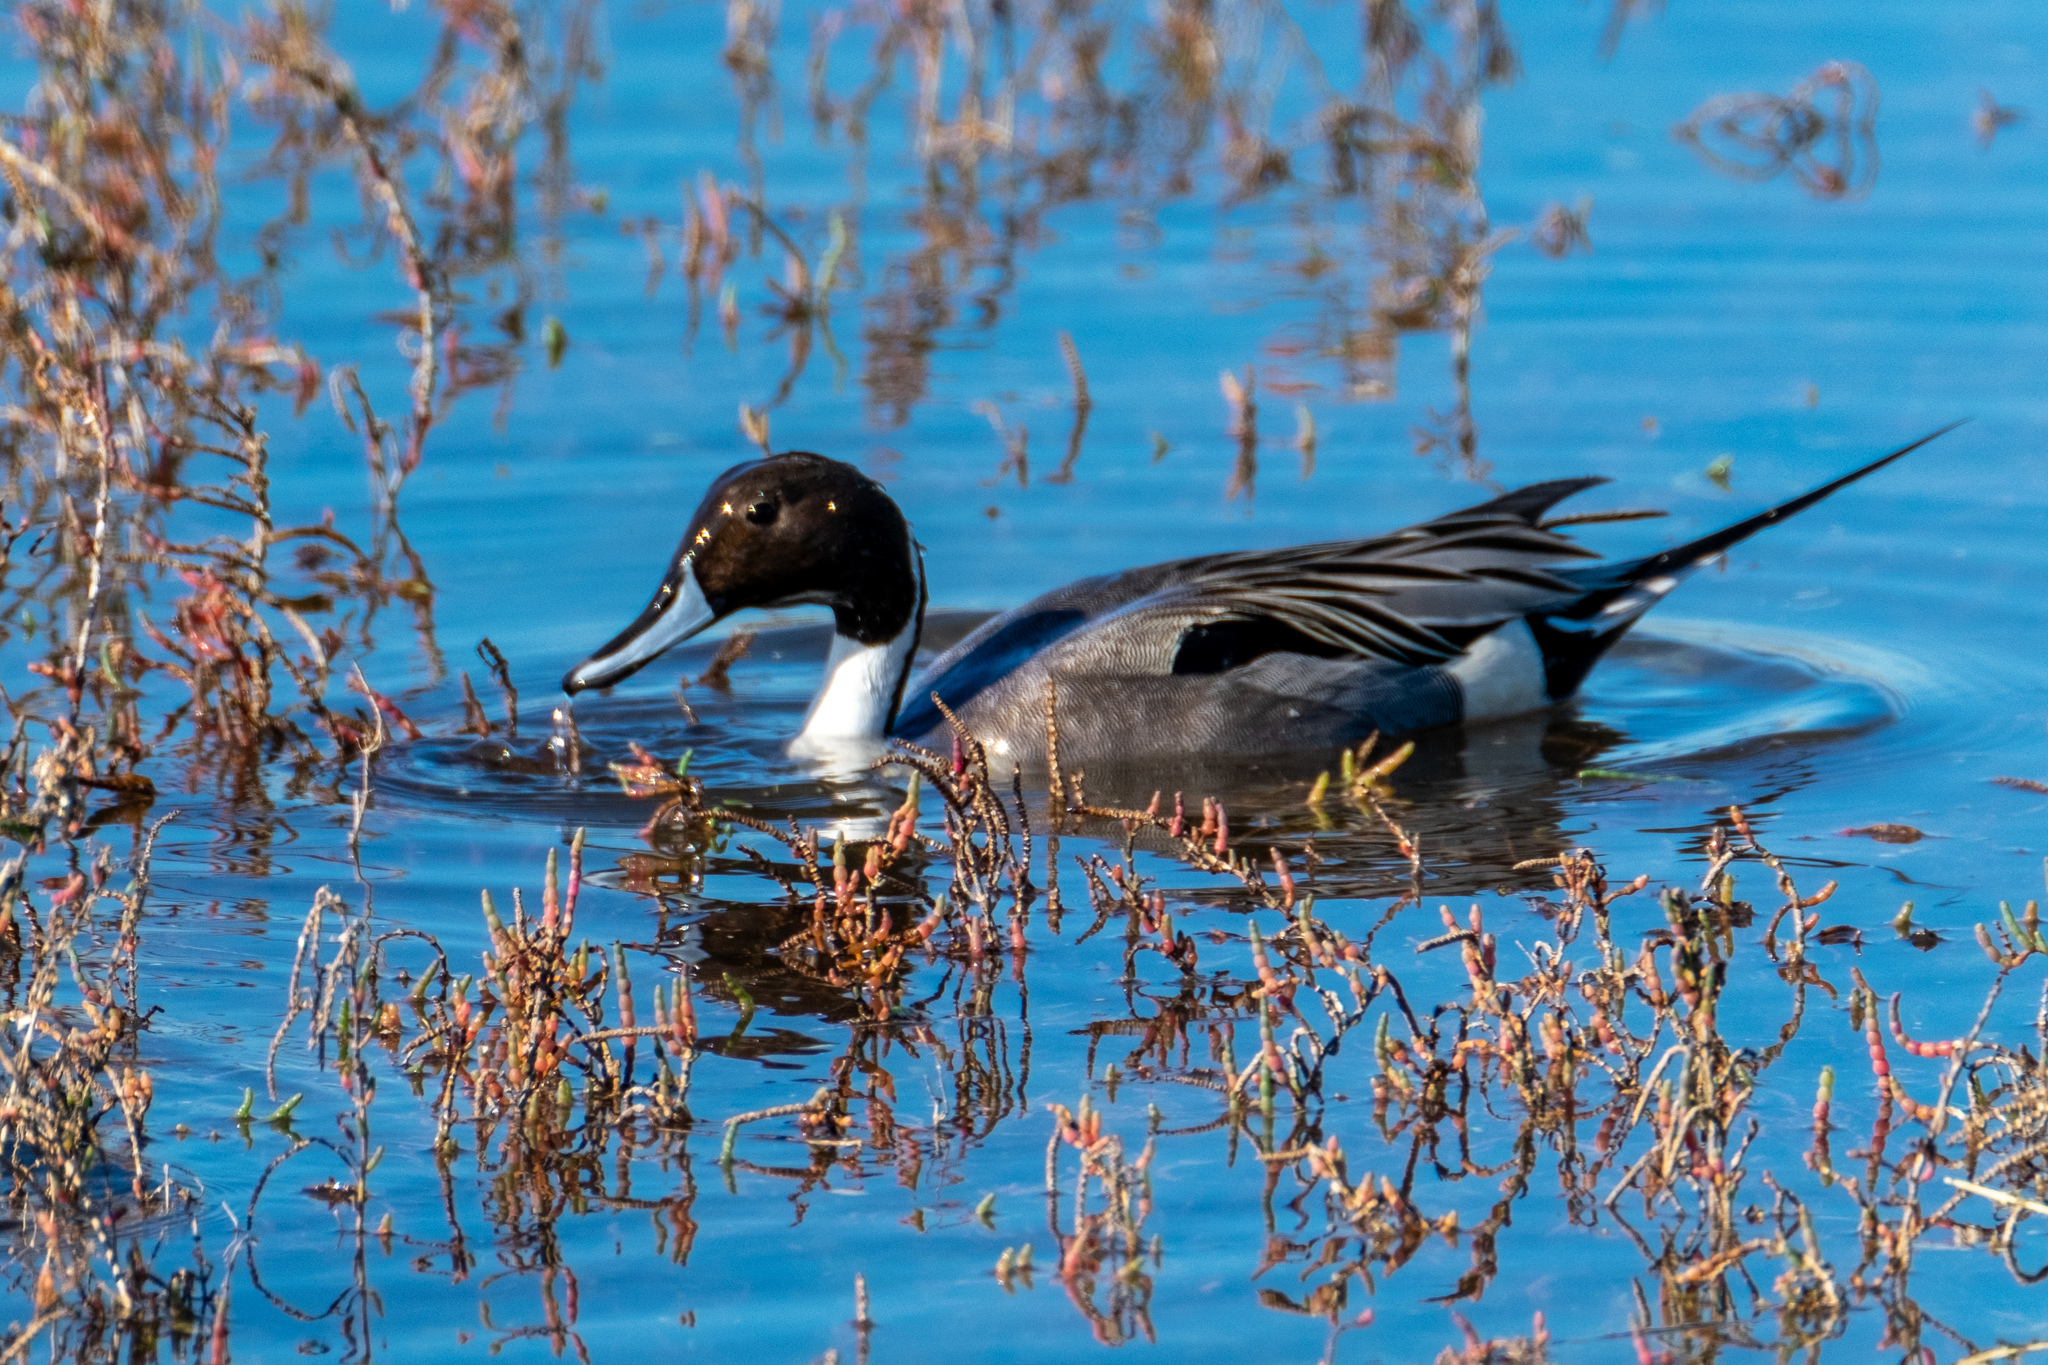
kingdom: Animalia
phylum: Chordata
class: Aves
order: Anseriformes
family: Anatidae
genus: Anas
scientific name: Anas acuta
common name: Northern pintail
